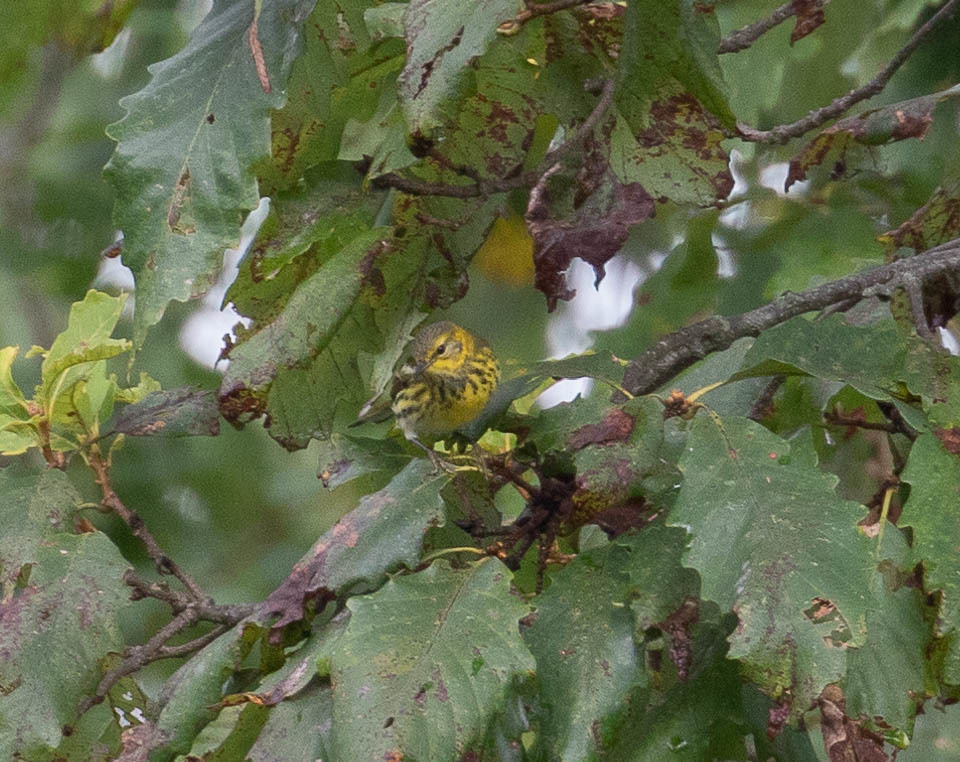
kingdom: Animalia
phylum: Chordata
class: Aves
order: Passeriformes
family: Parulidae
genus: Setophaga
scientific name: Setophaga tigrina
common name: Cape may warbler
